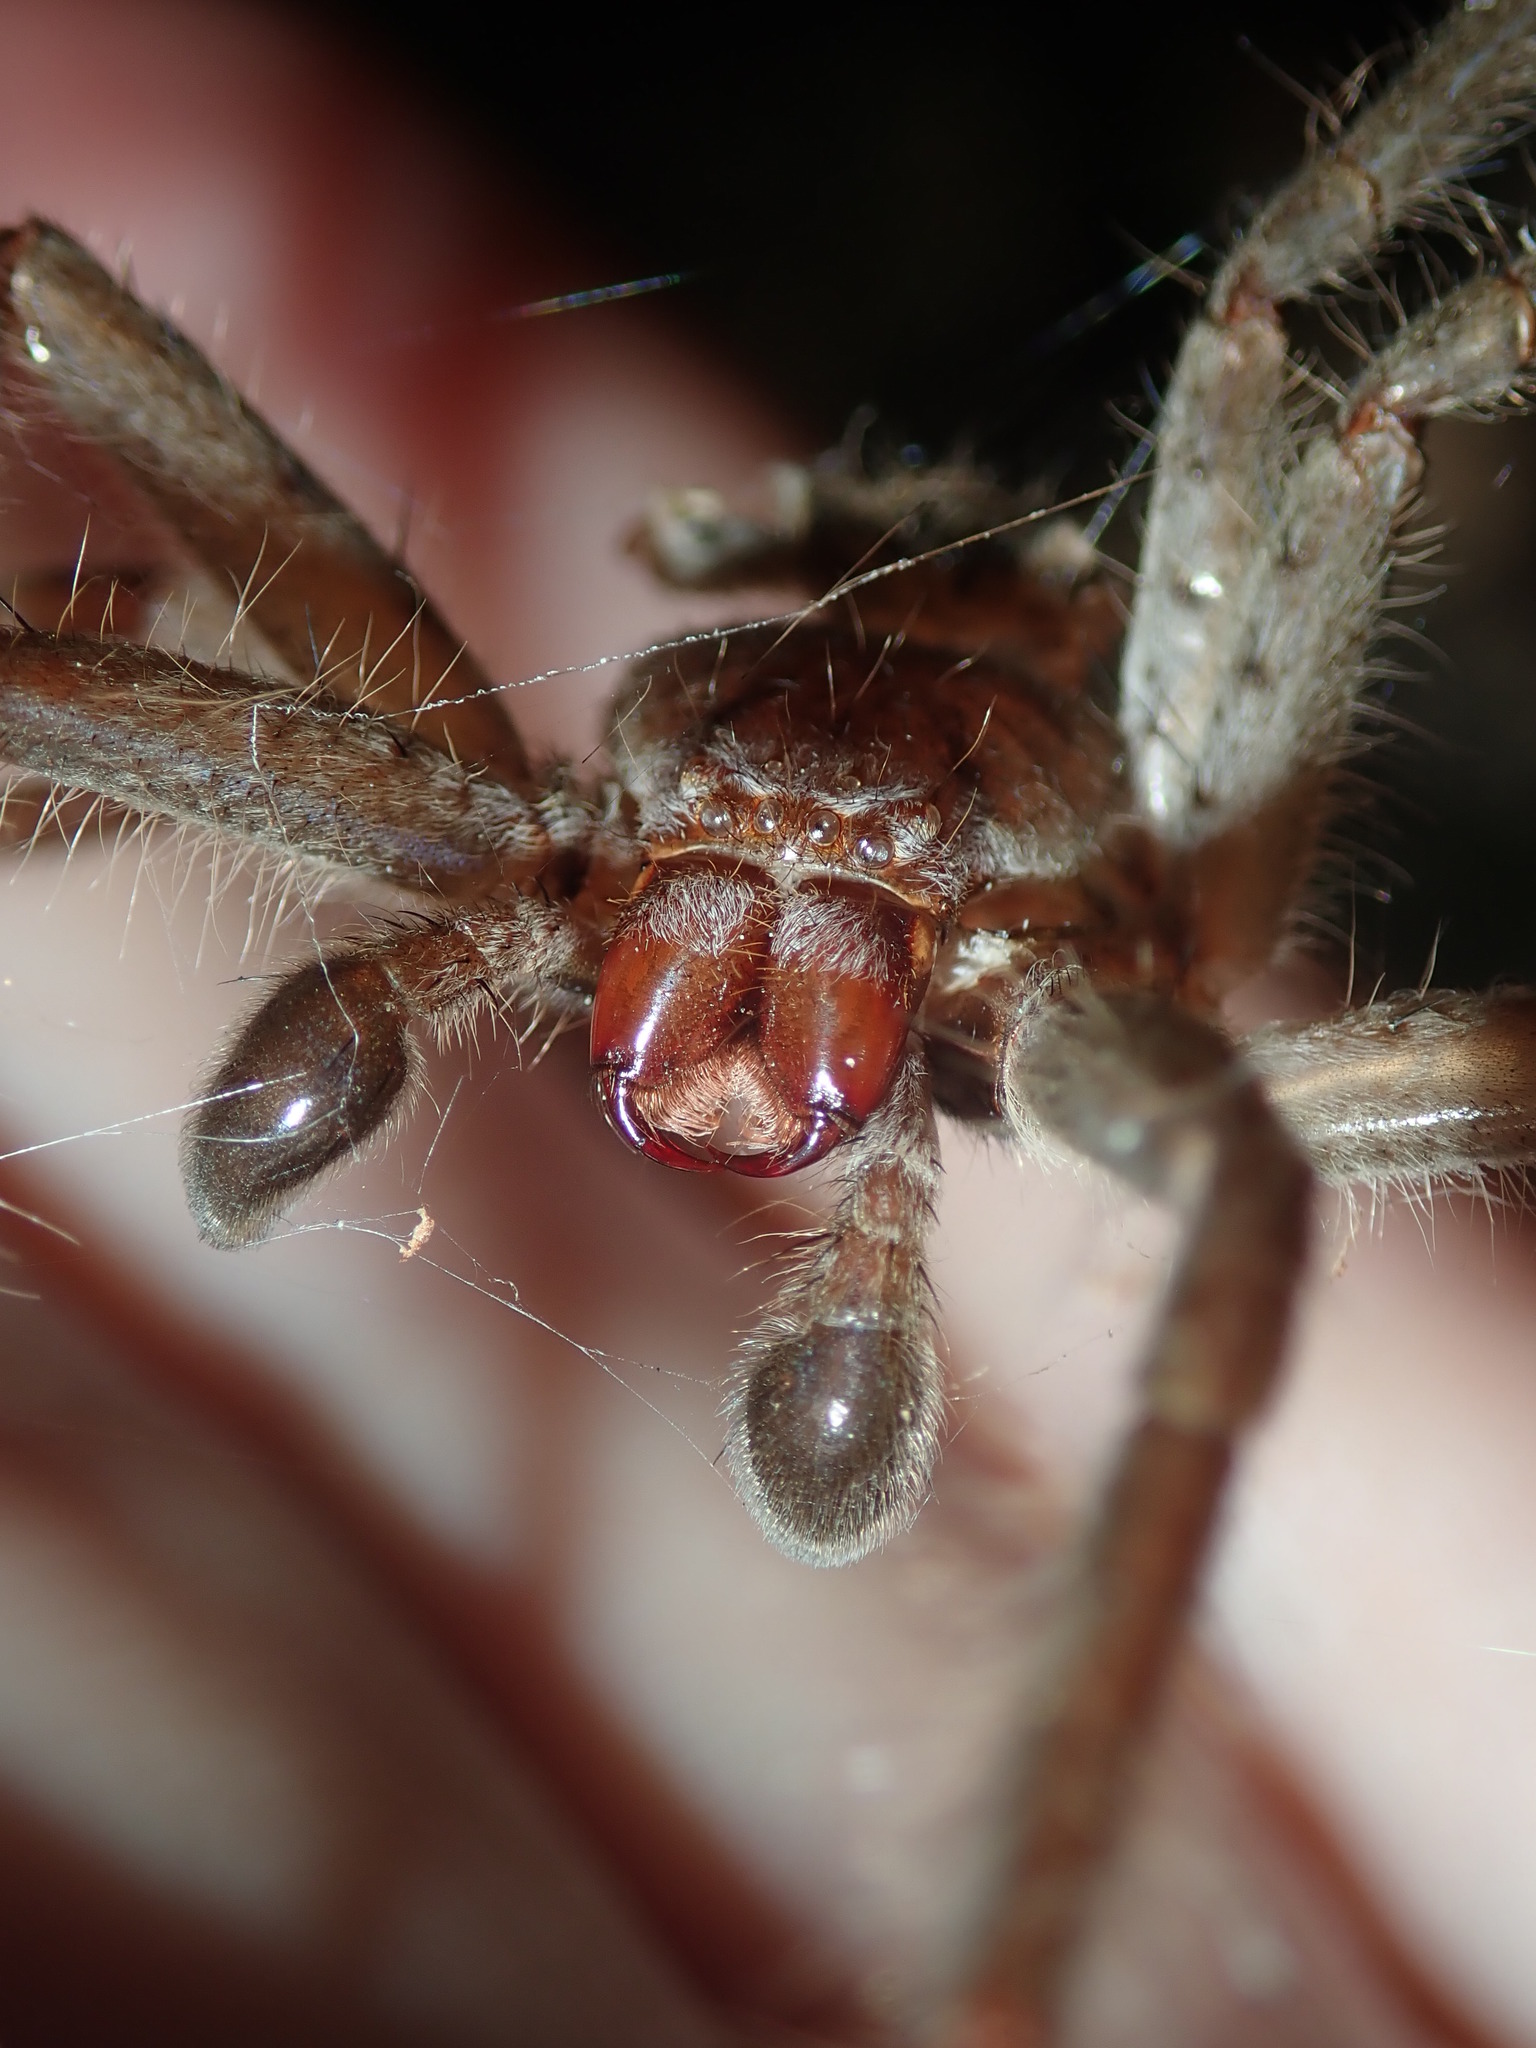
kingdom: Animalia
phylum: Arthropoda
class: Arachnida
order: Araneae
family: Sparassidae
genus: Isopeda
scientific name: Isopeda villosa
